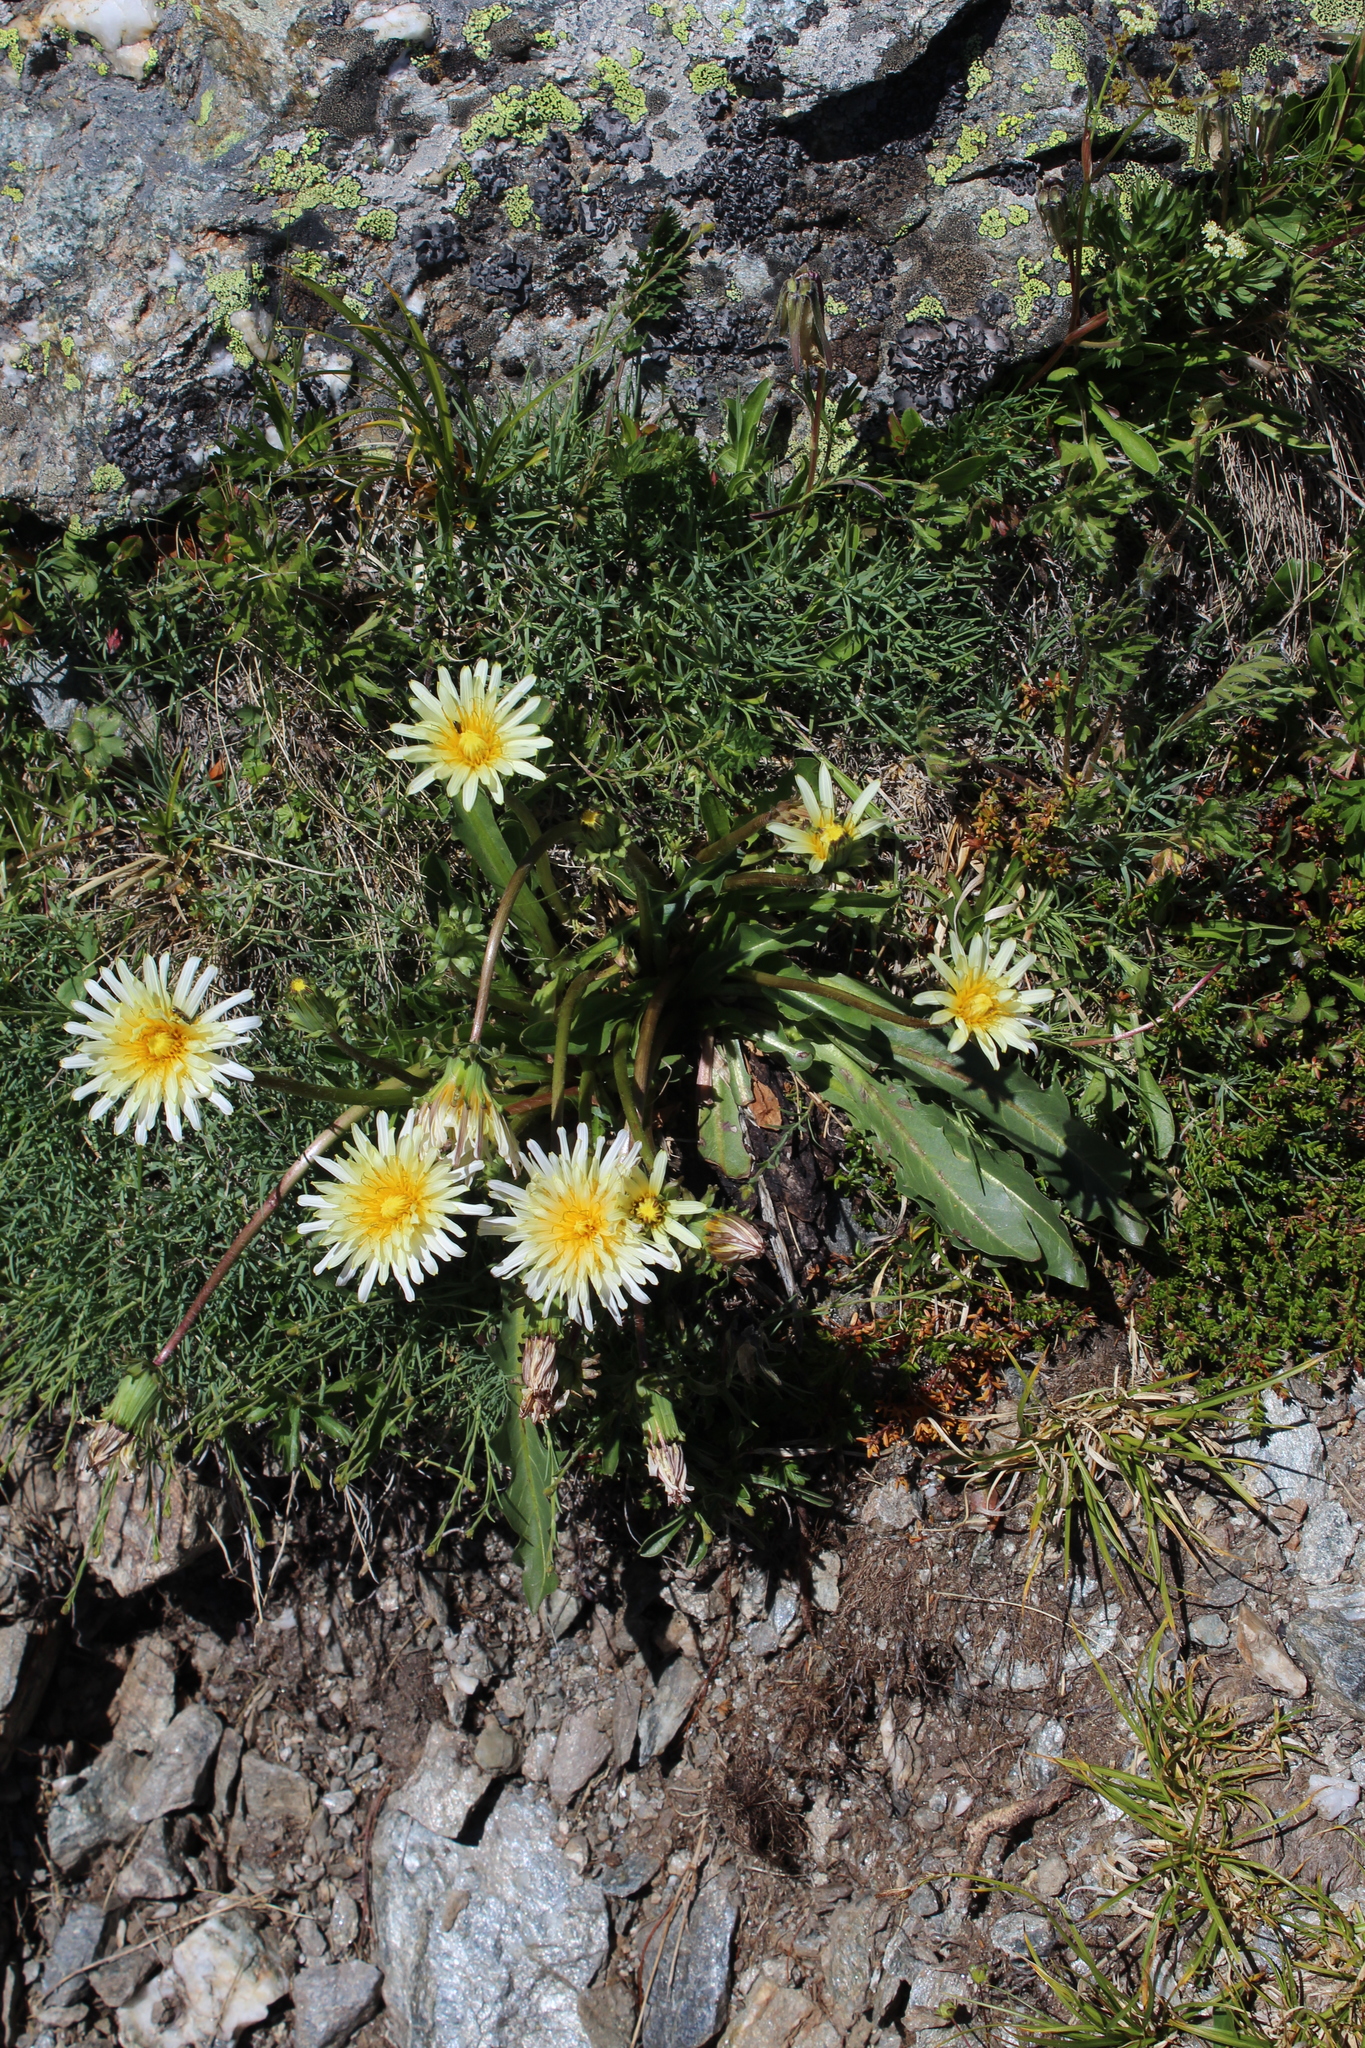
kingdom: Plantae
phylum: Tracheophyta
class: Magnoliopsida
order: Asterales
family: Asteraceae
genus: Taraxacum
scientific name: Taraxacum confusum
